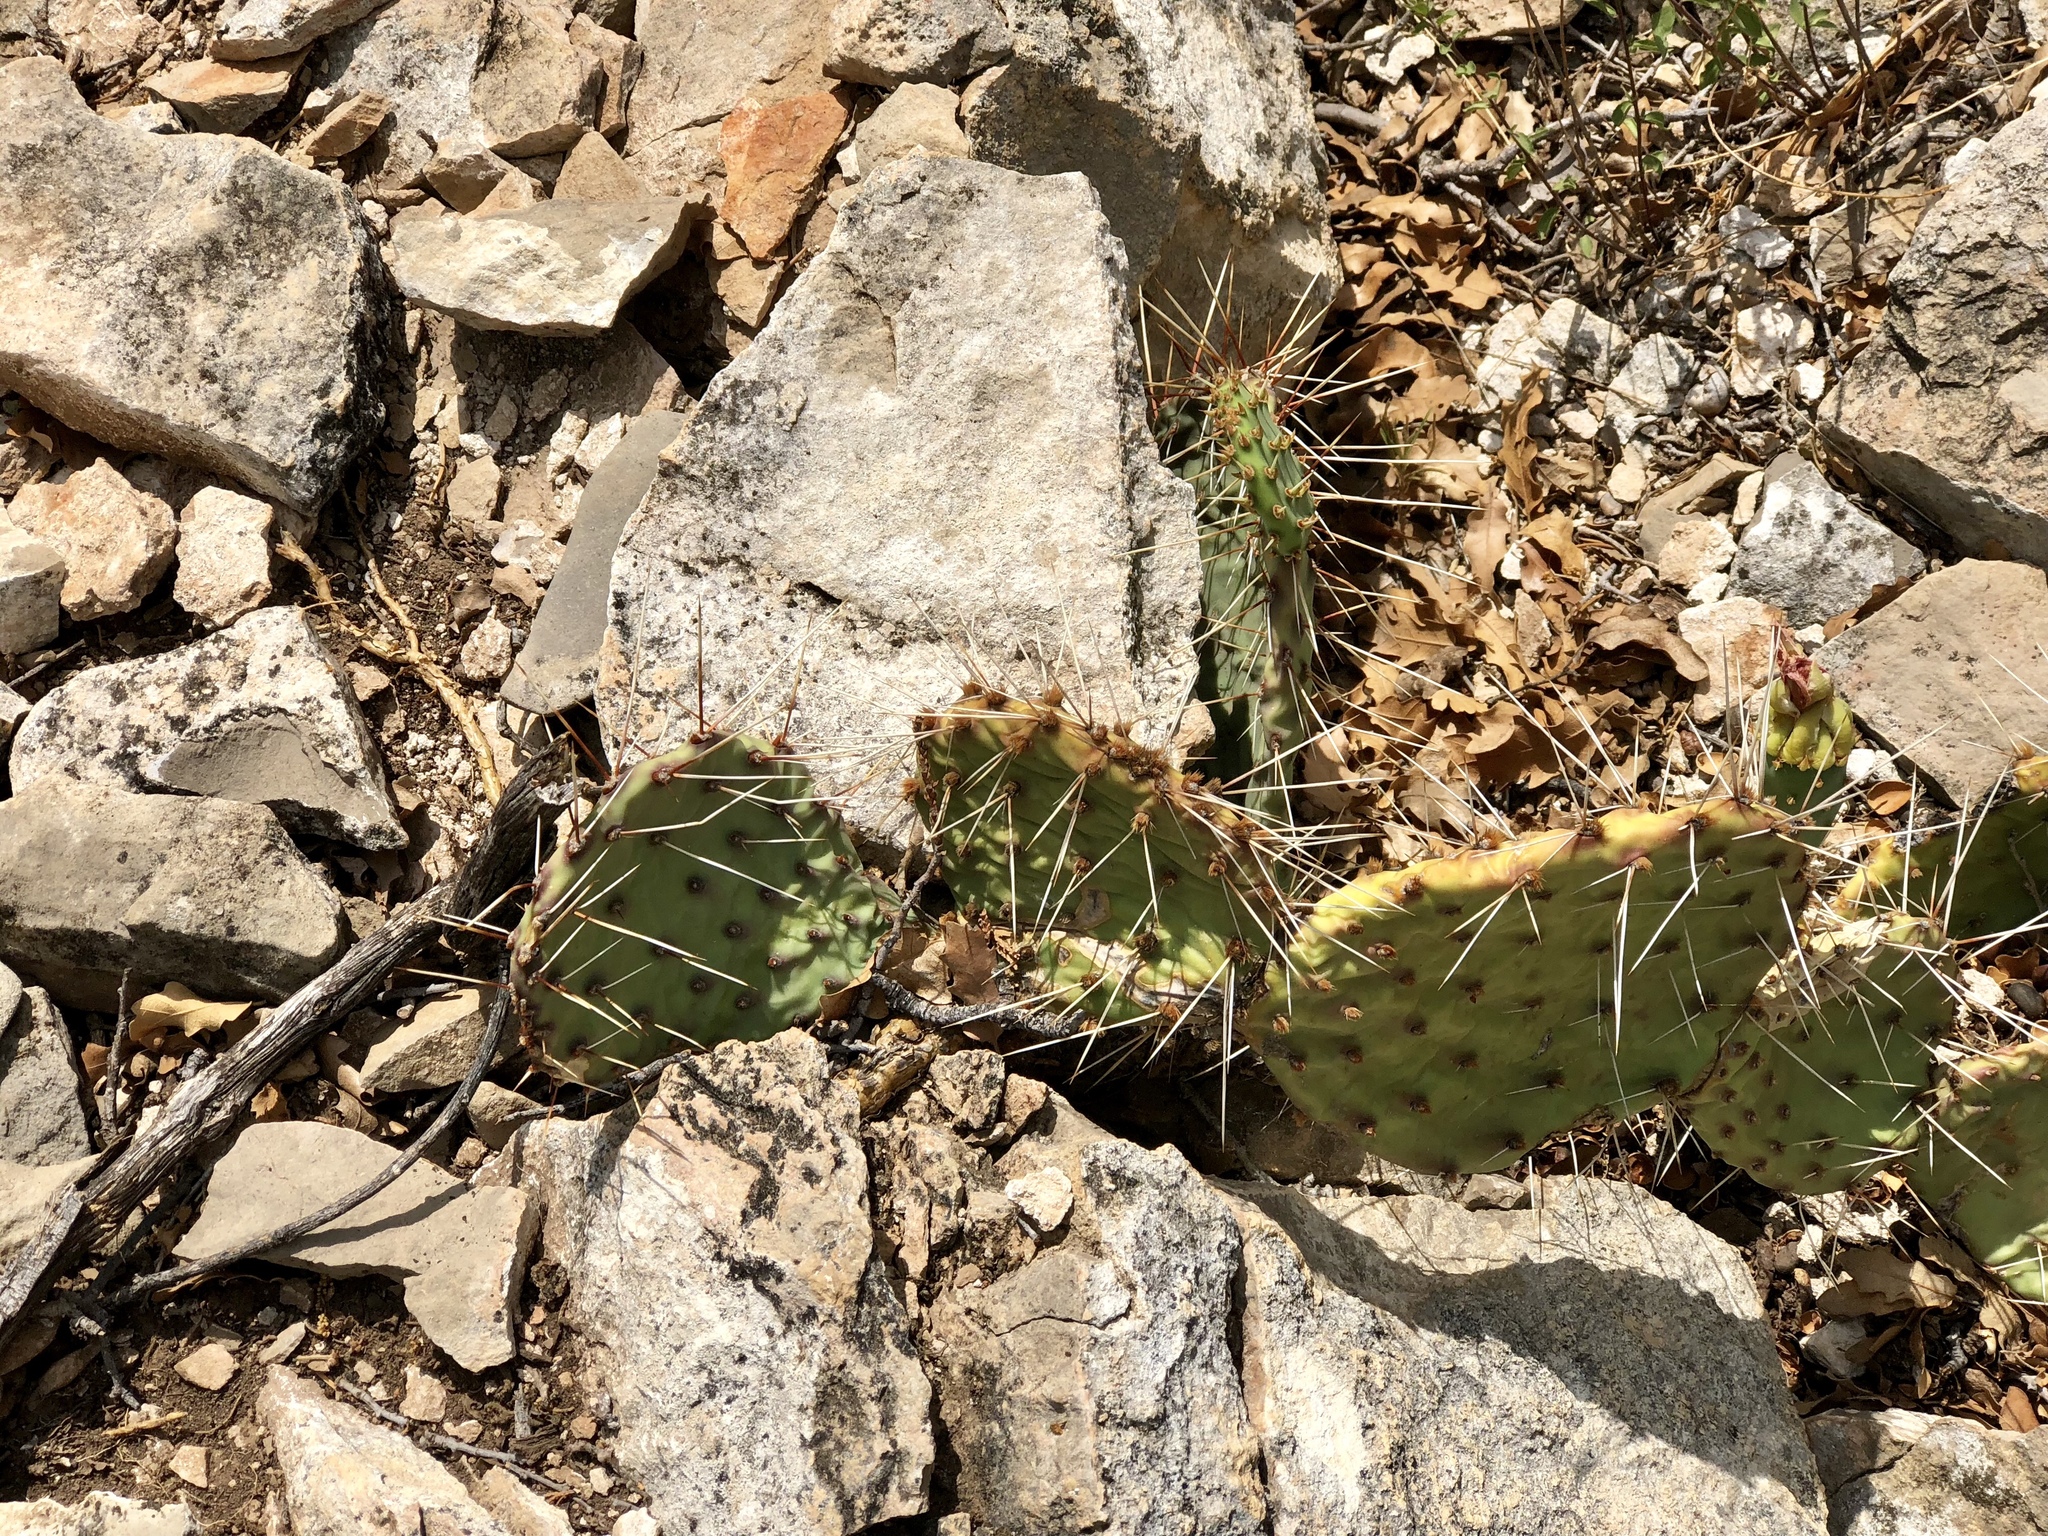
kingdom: Plantae
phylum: Tracheophyta
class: Magnoliopsida
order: Caryophyllales
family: Cactaceae
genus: Opuntia
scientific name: Opuntia phaeacantha
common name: New mexico prickly-pear
